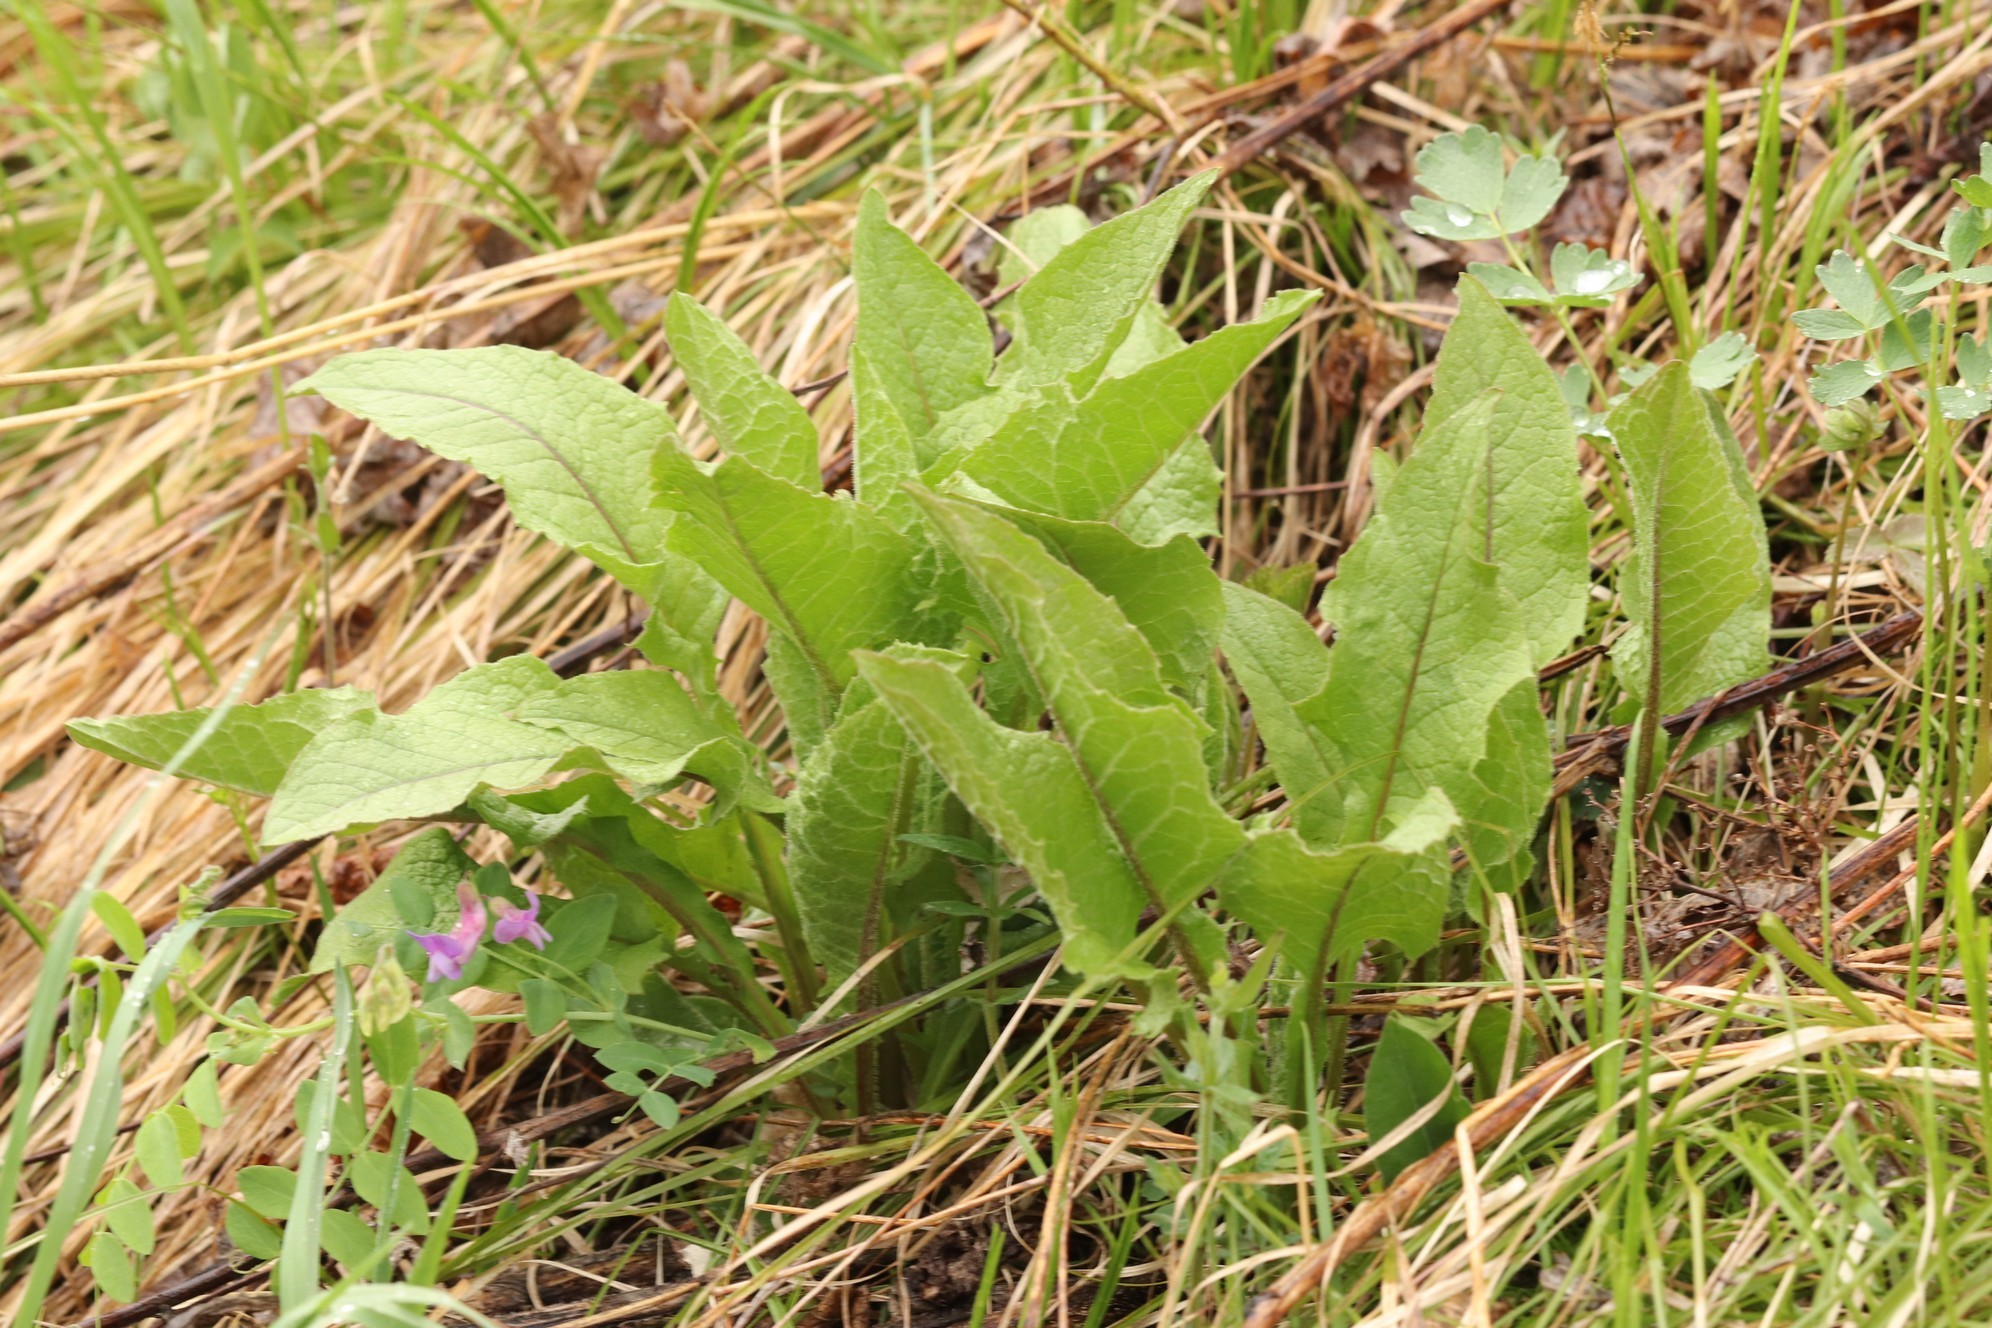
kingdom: Plantae
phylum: Tracheophyta
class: Magnoliopsida
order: Asterales
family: Asteraceae
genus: Crepis
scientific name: Crepis sibirica
